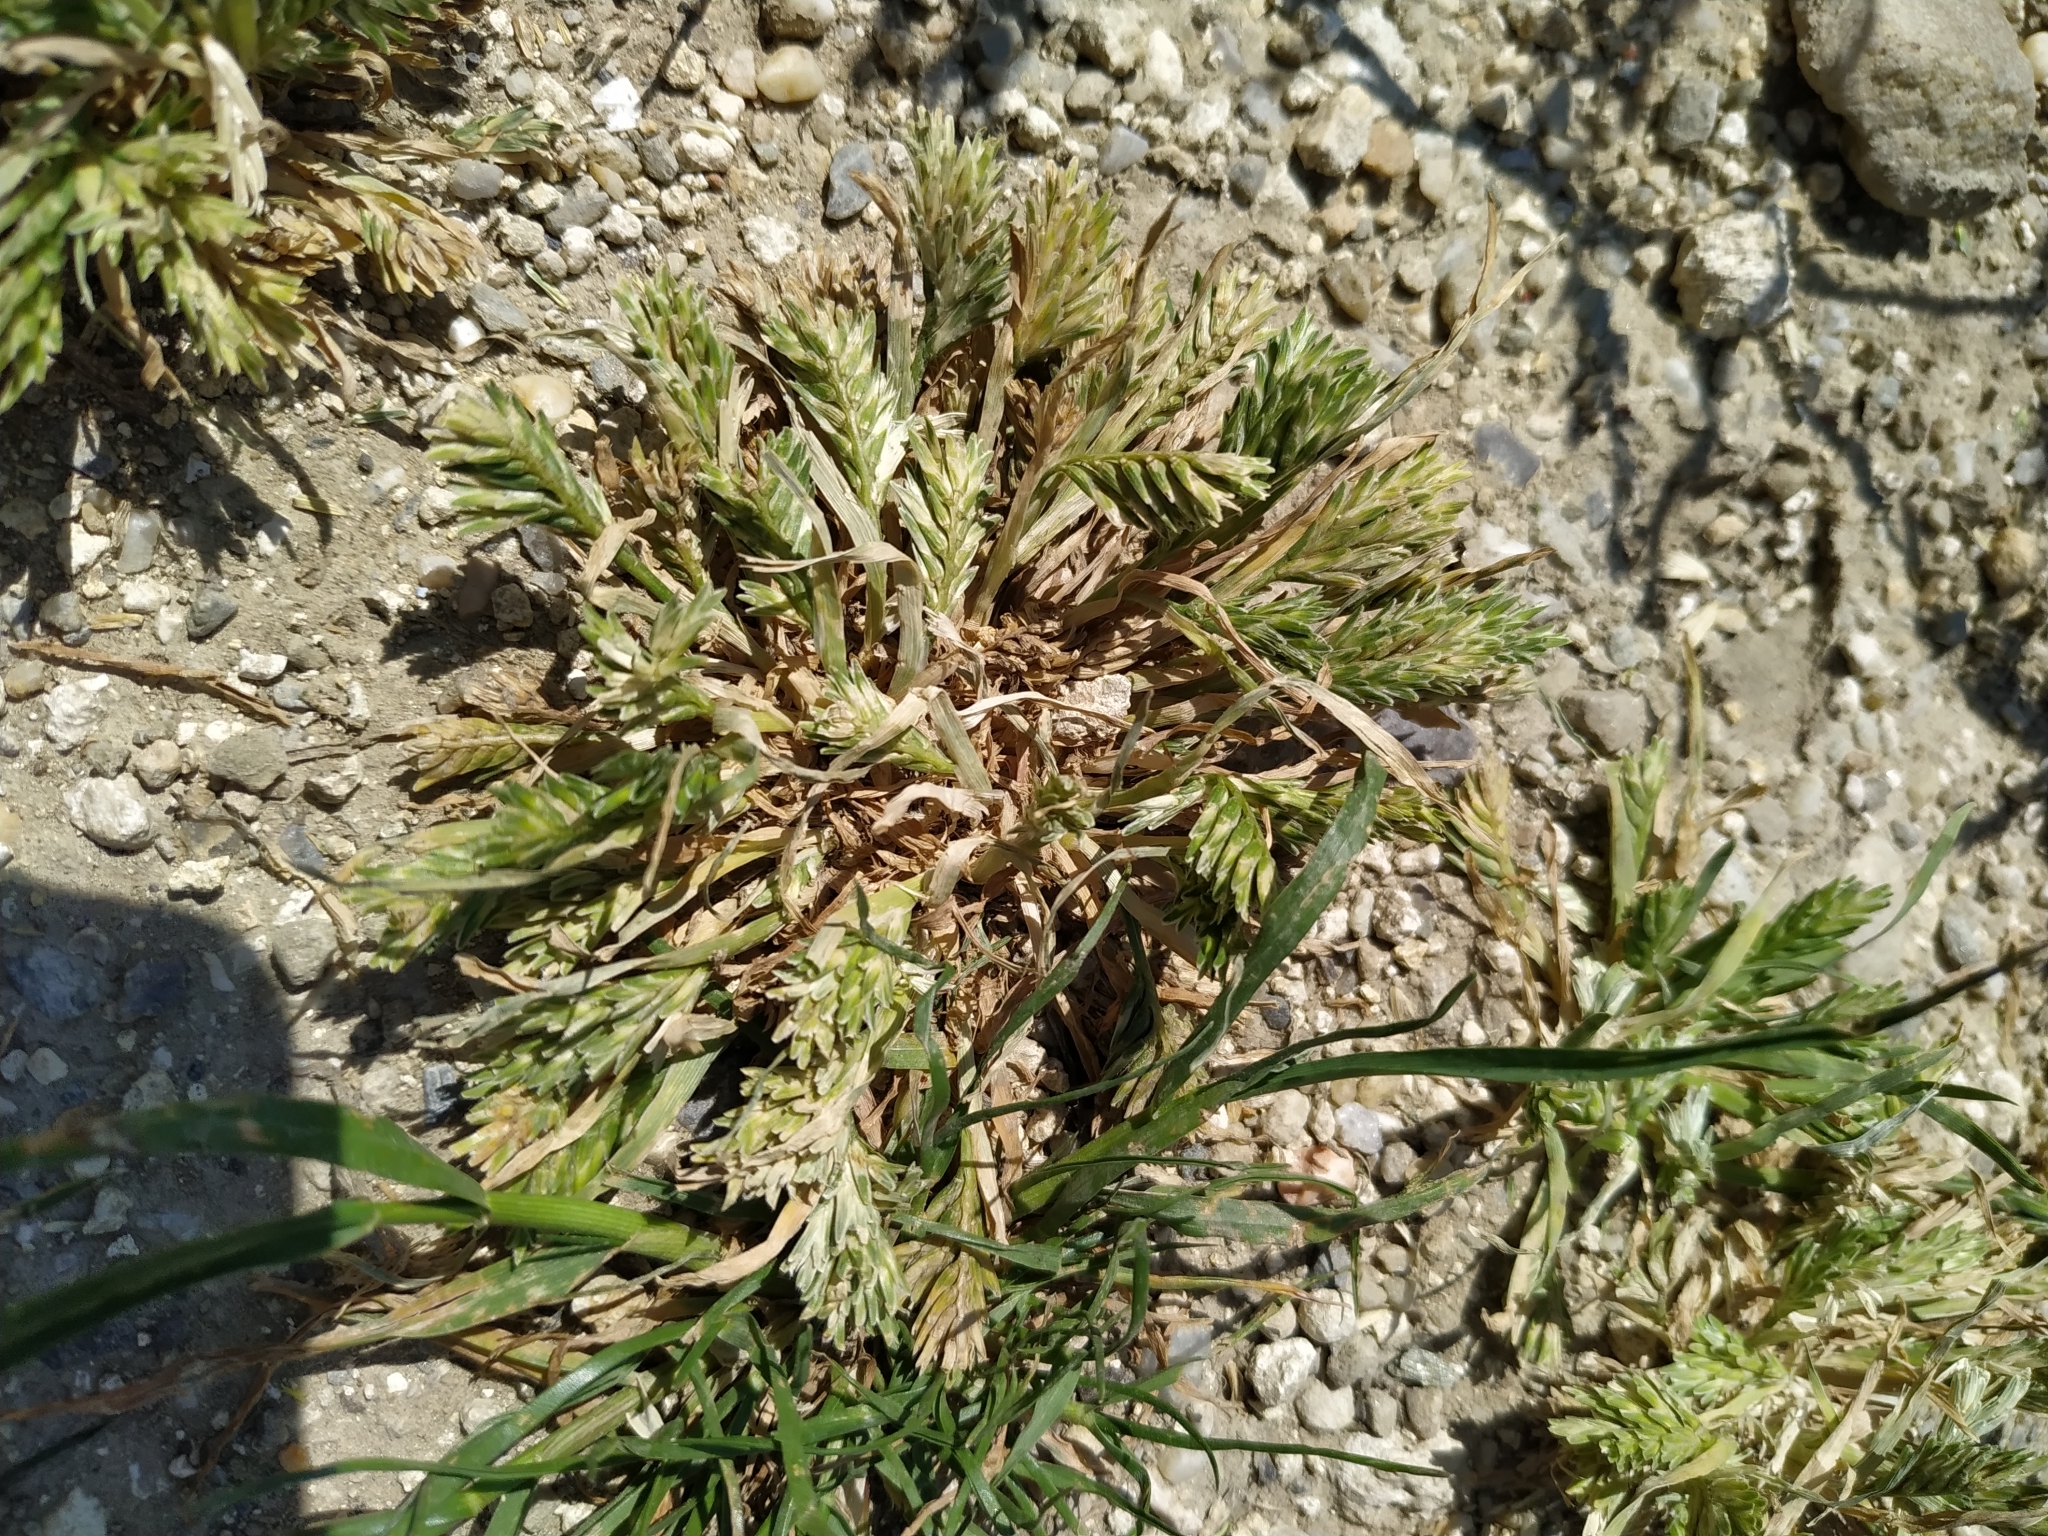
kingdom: Plantae
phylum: Tracheophyta
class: Liliopsida
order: Poales
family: Poaceae
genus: Sclerochloa
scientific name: Sclerochloa dura
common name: Common hardgrass
